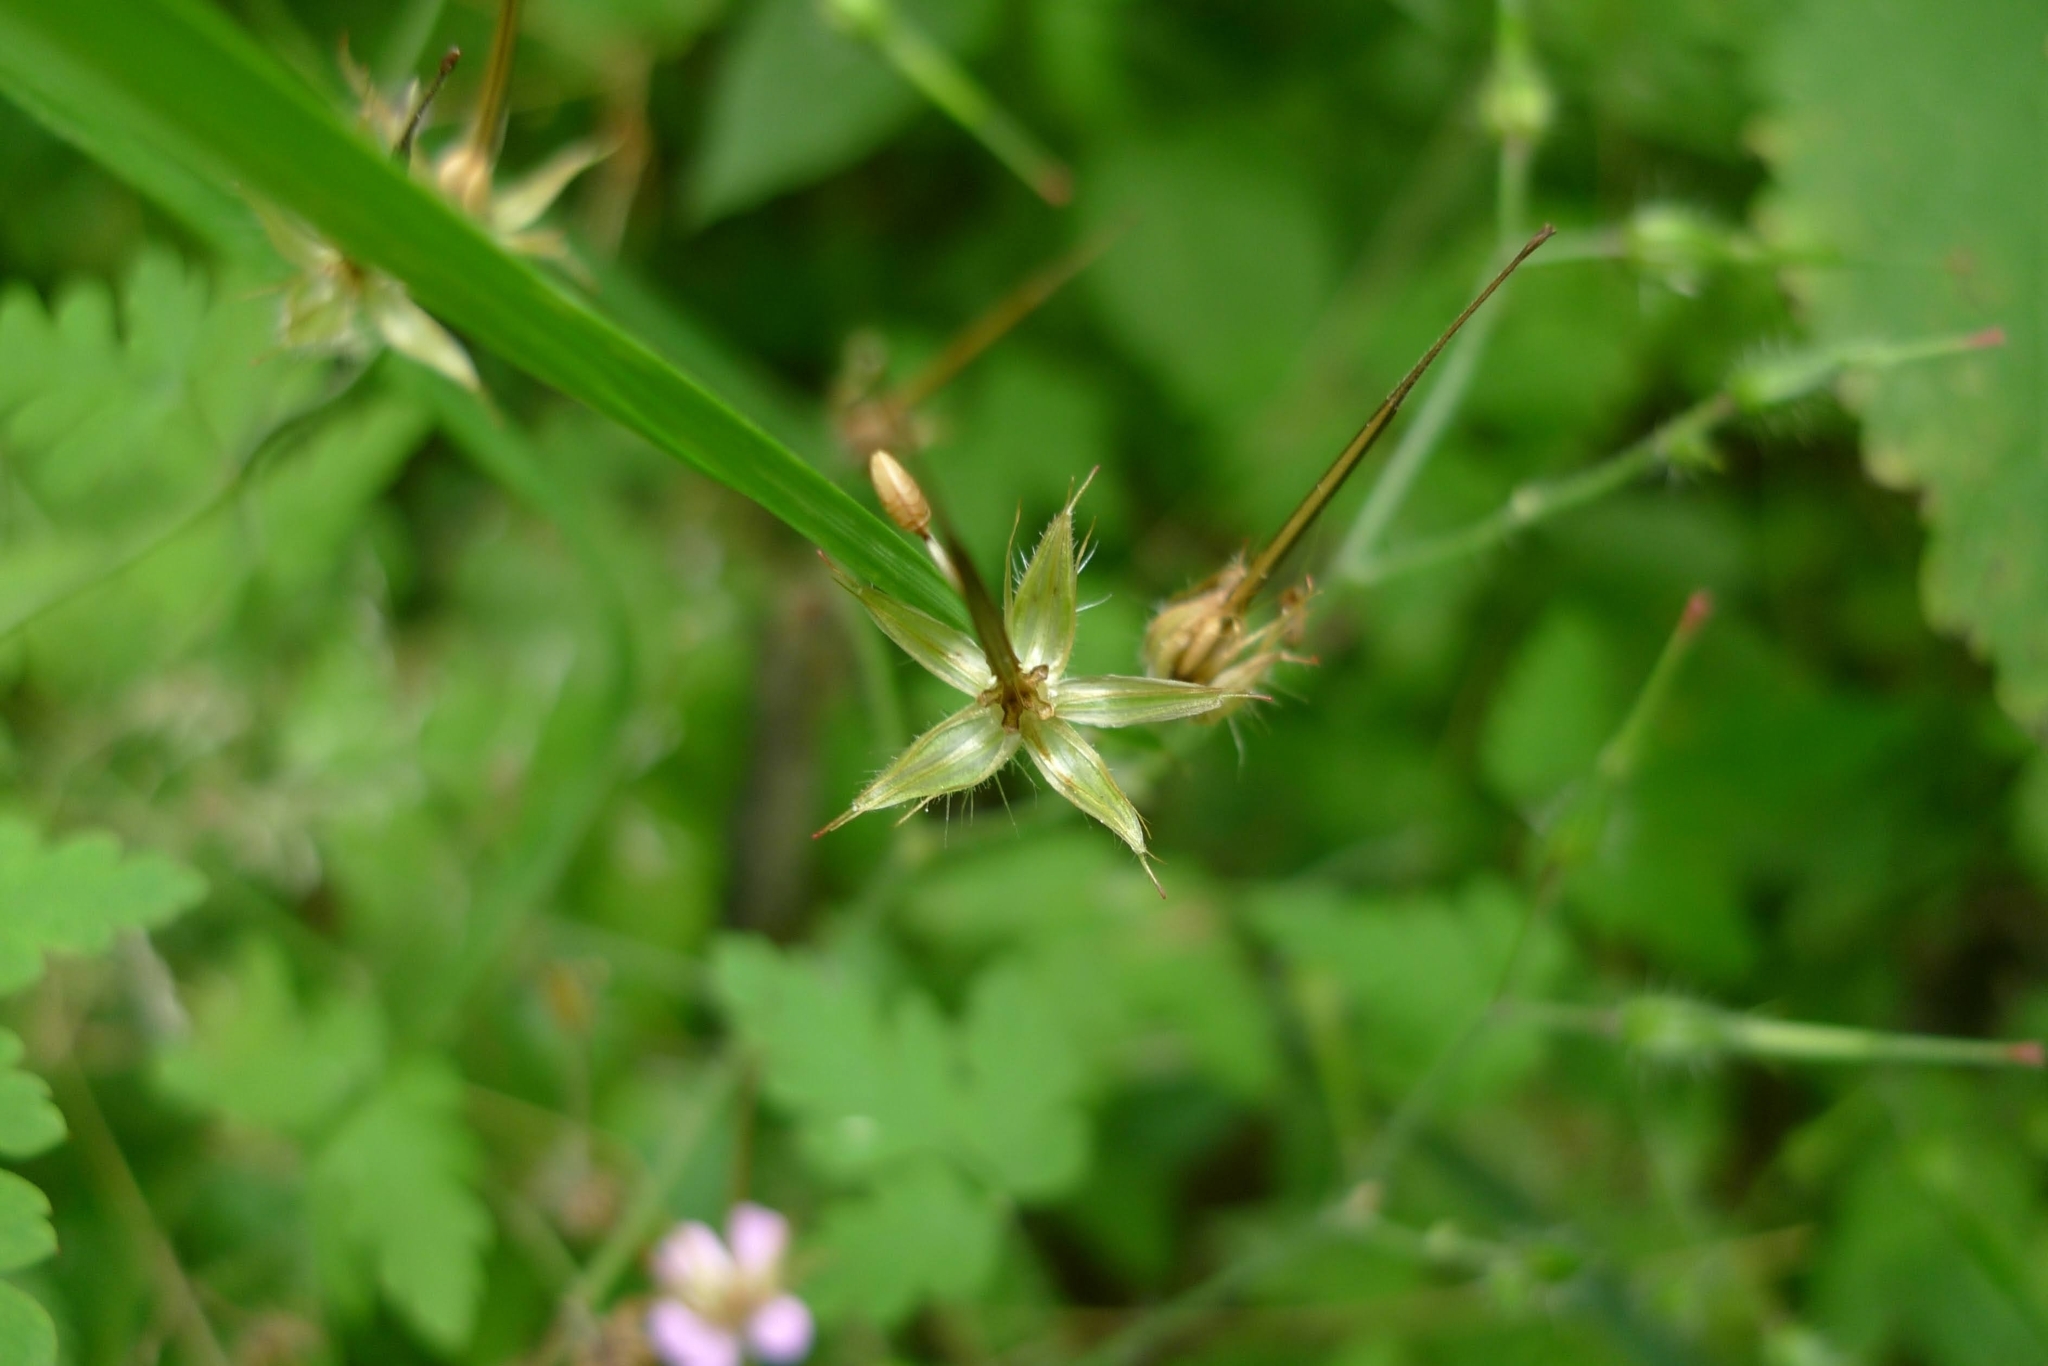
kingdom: Plantae
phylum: Tracheophyta
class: Magnoliopsida
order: Geraniales
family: Geraniaceae
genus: Geranium
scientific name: Geranium robertianum
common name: Herb-robert
